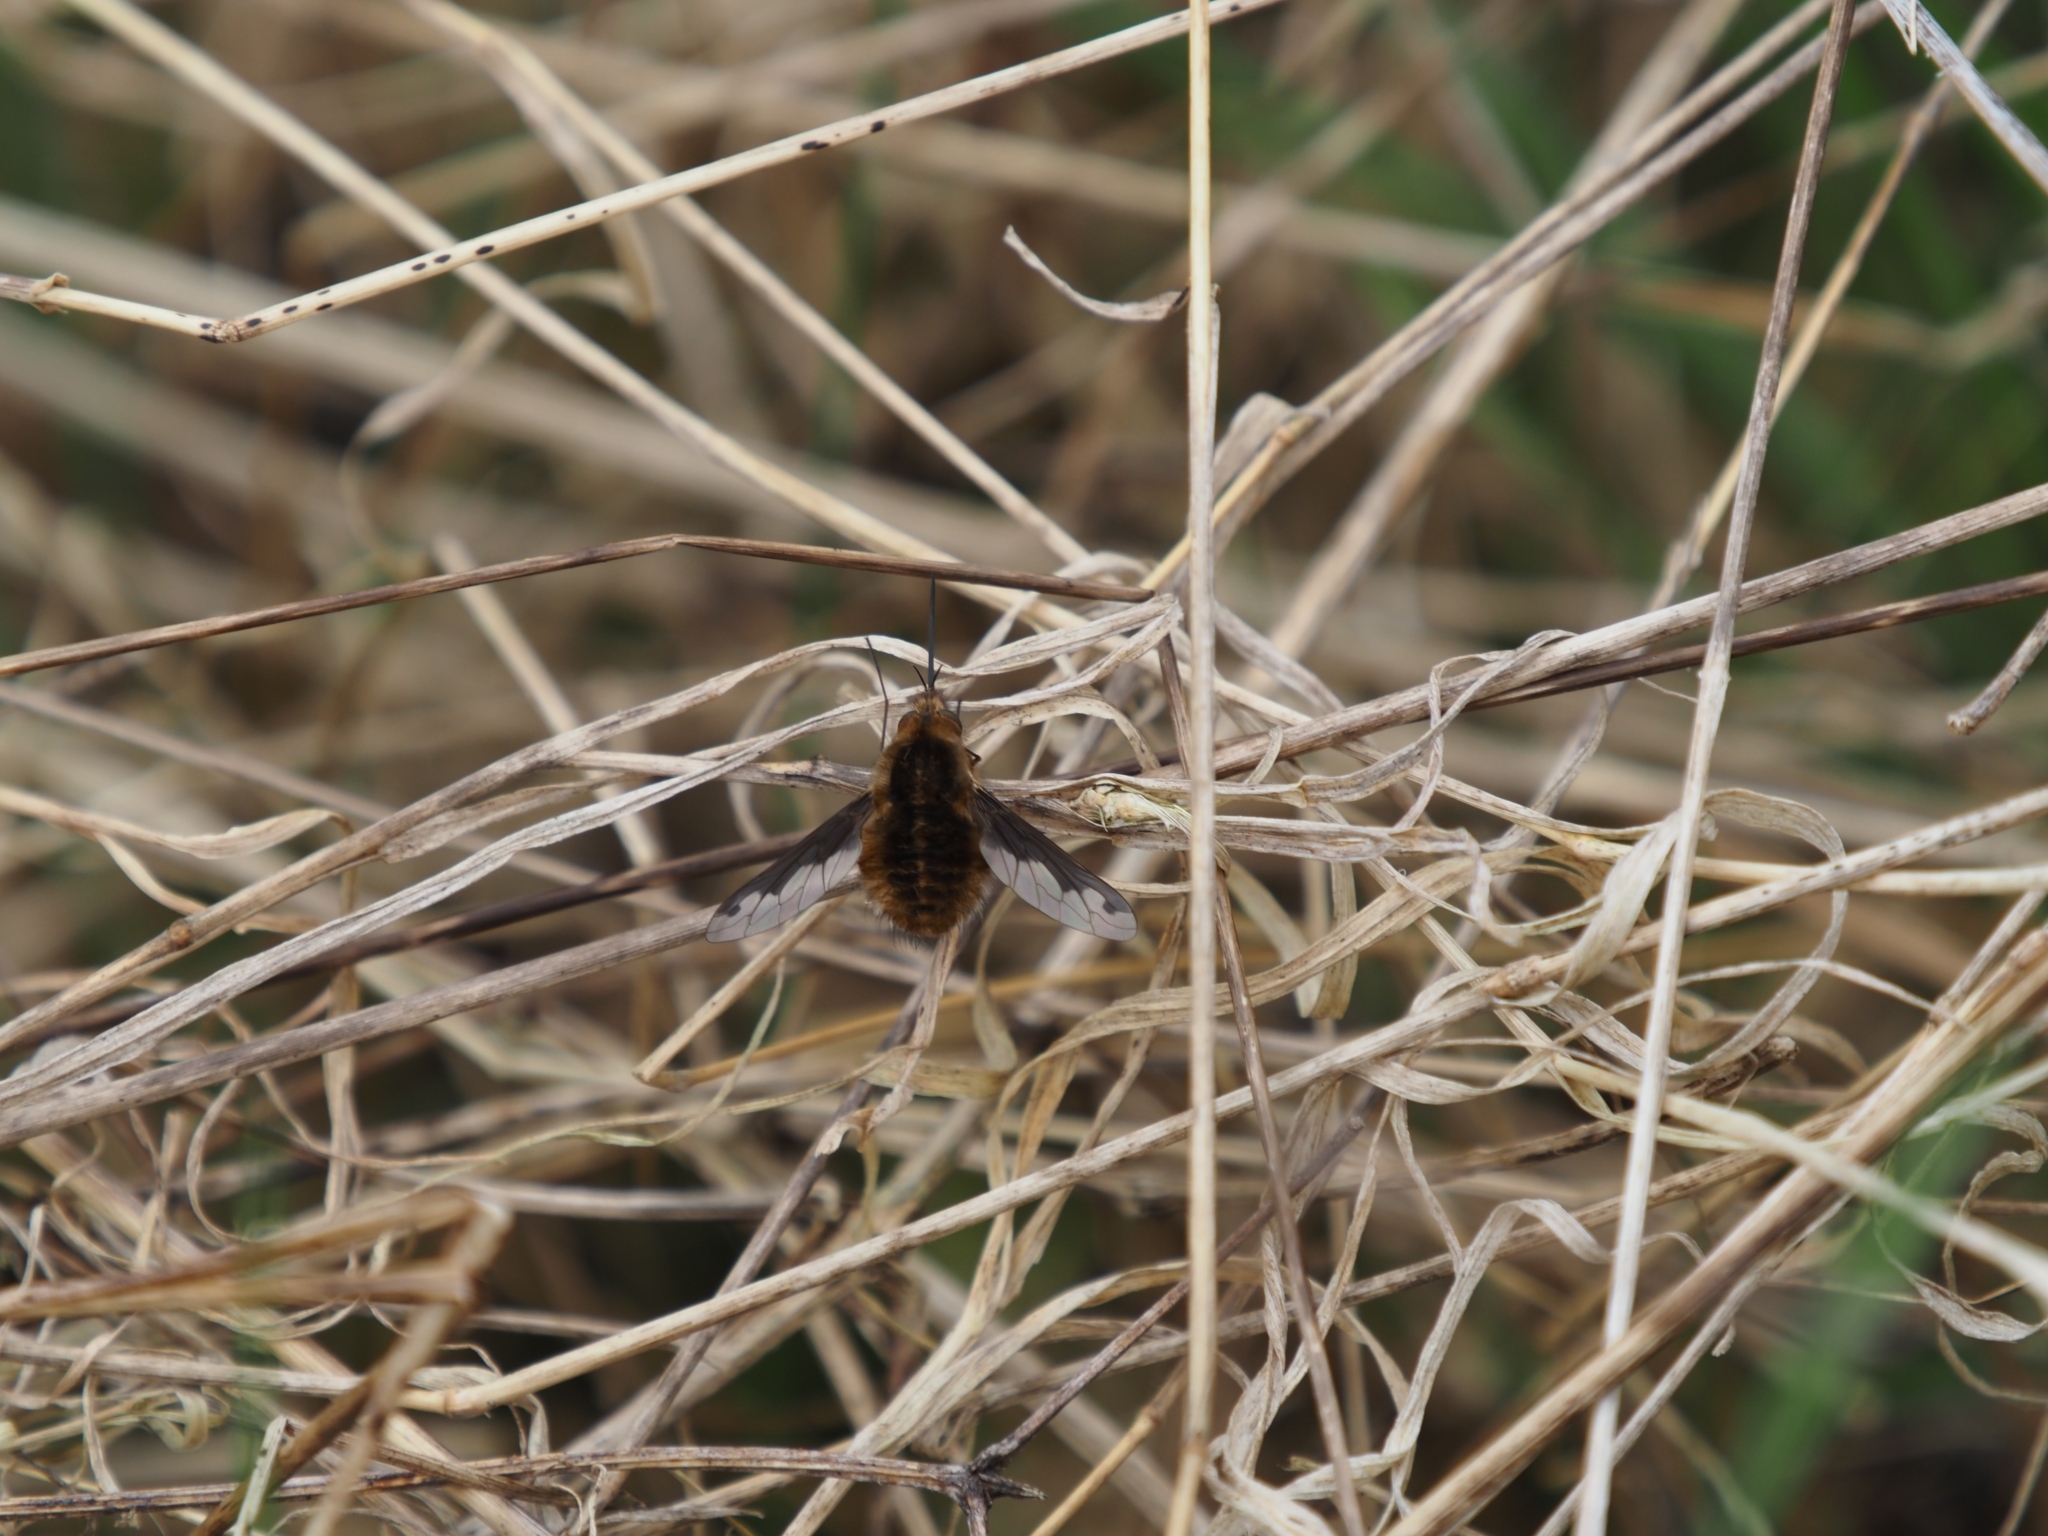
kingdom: Animalia
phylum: Arthropoda
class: Insecta
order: Diptera
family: Bombyliidae
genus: Bombylius
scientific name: Bombylius major
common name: Bee fly
